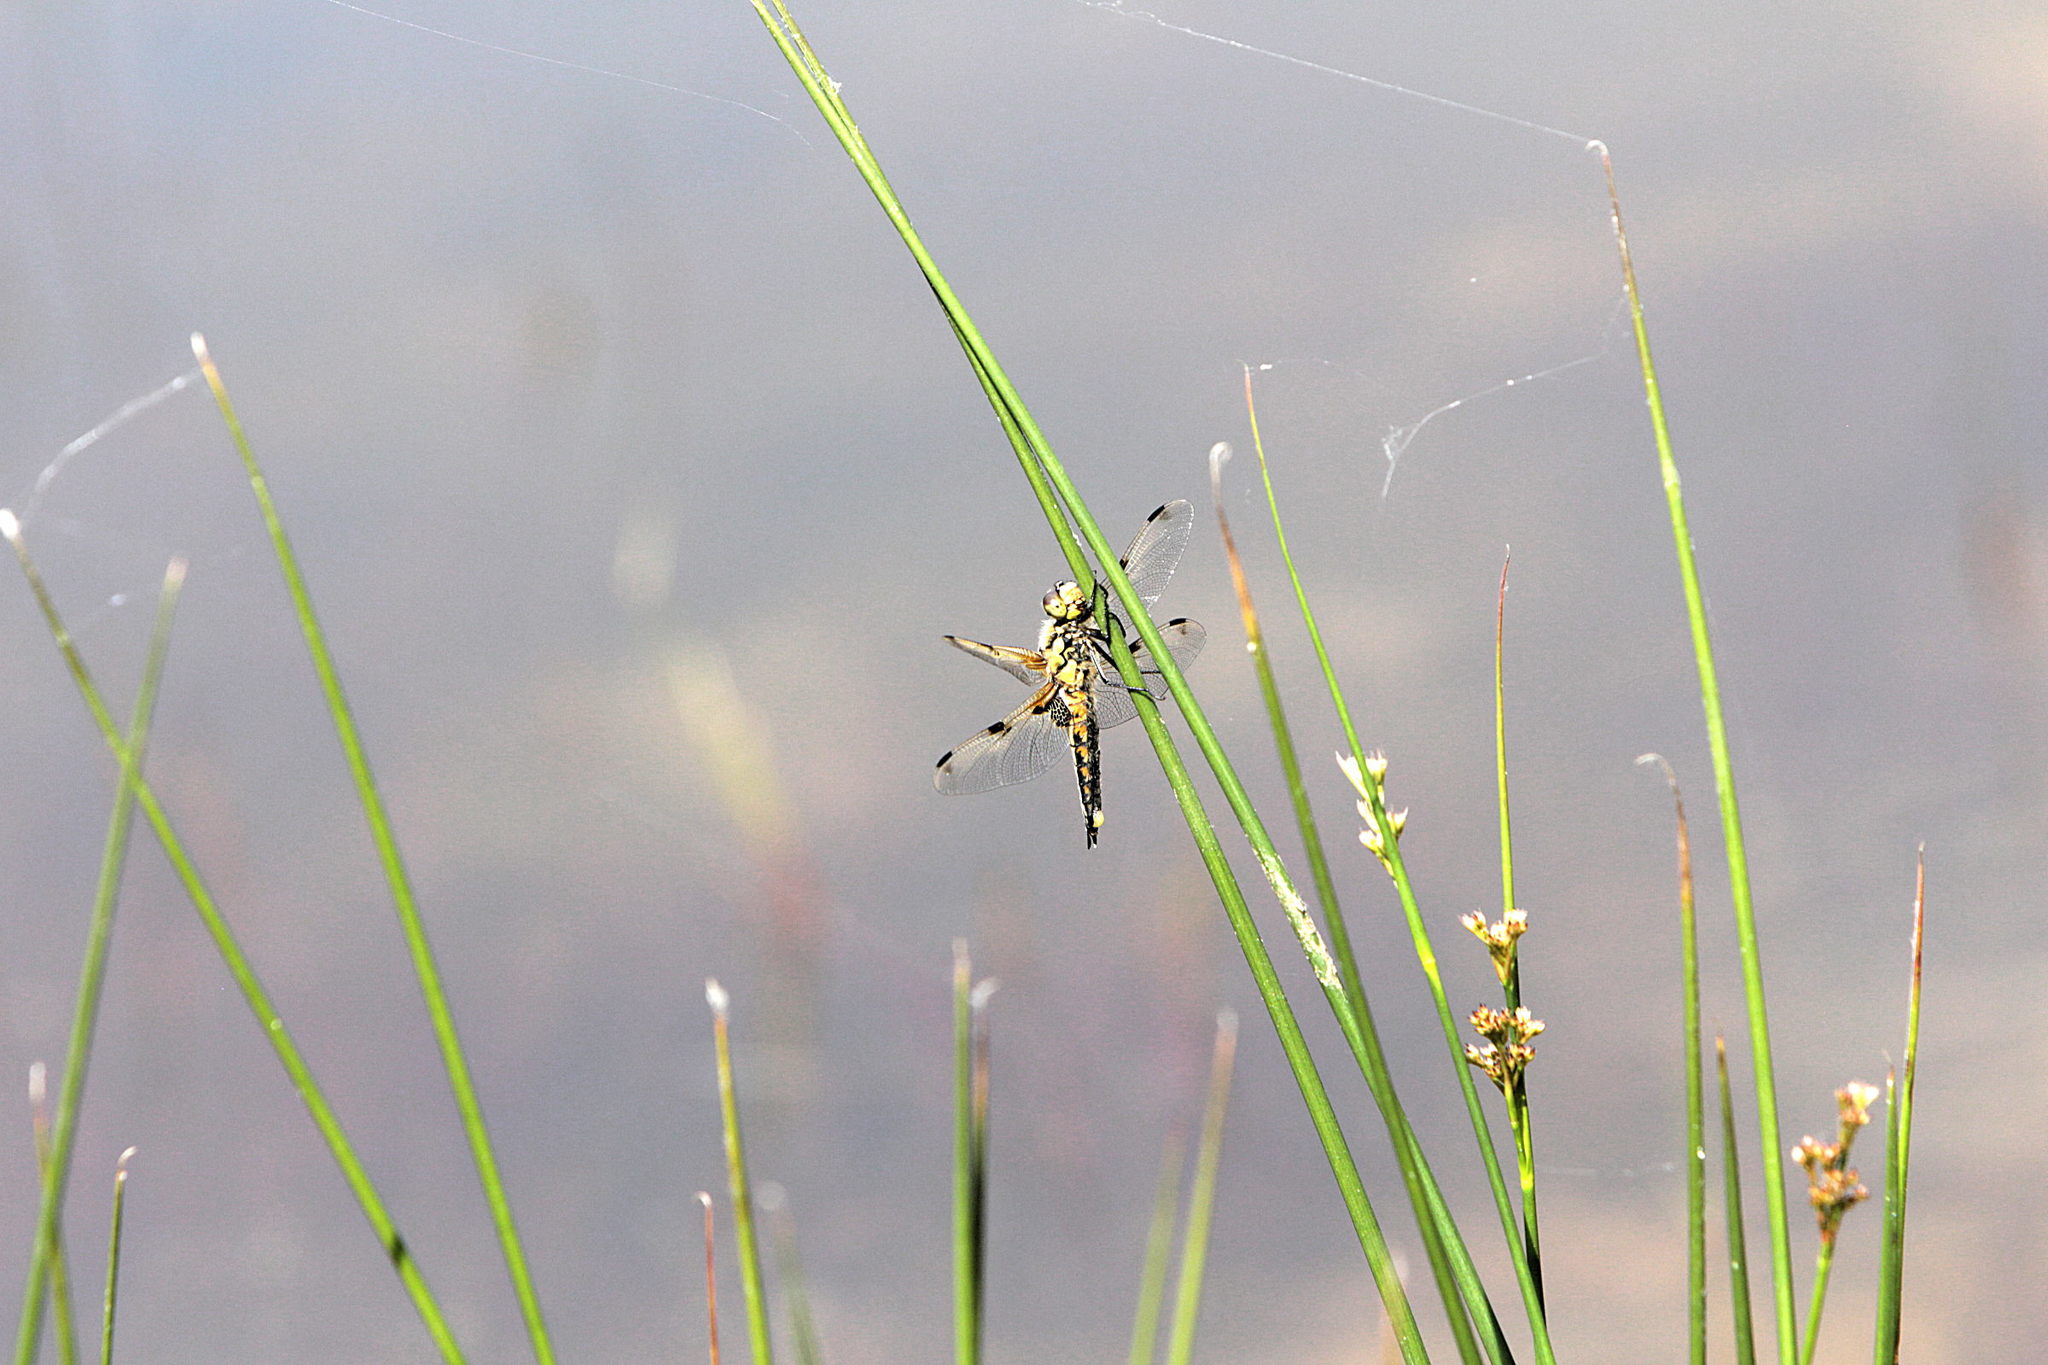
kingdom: Animalia
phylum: Arthropoda
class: Insecta
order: Odonata
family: Libellulidae
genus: Libellula
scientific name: Libellula quadrimaculata
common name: Four-spotted chaser
